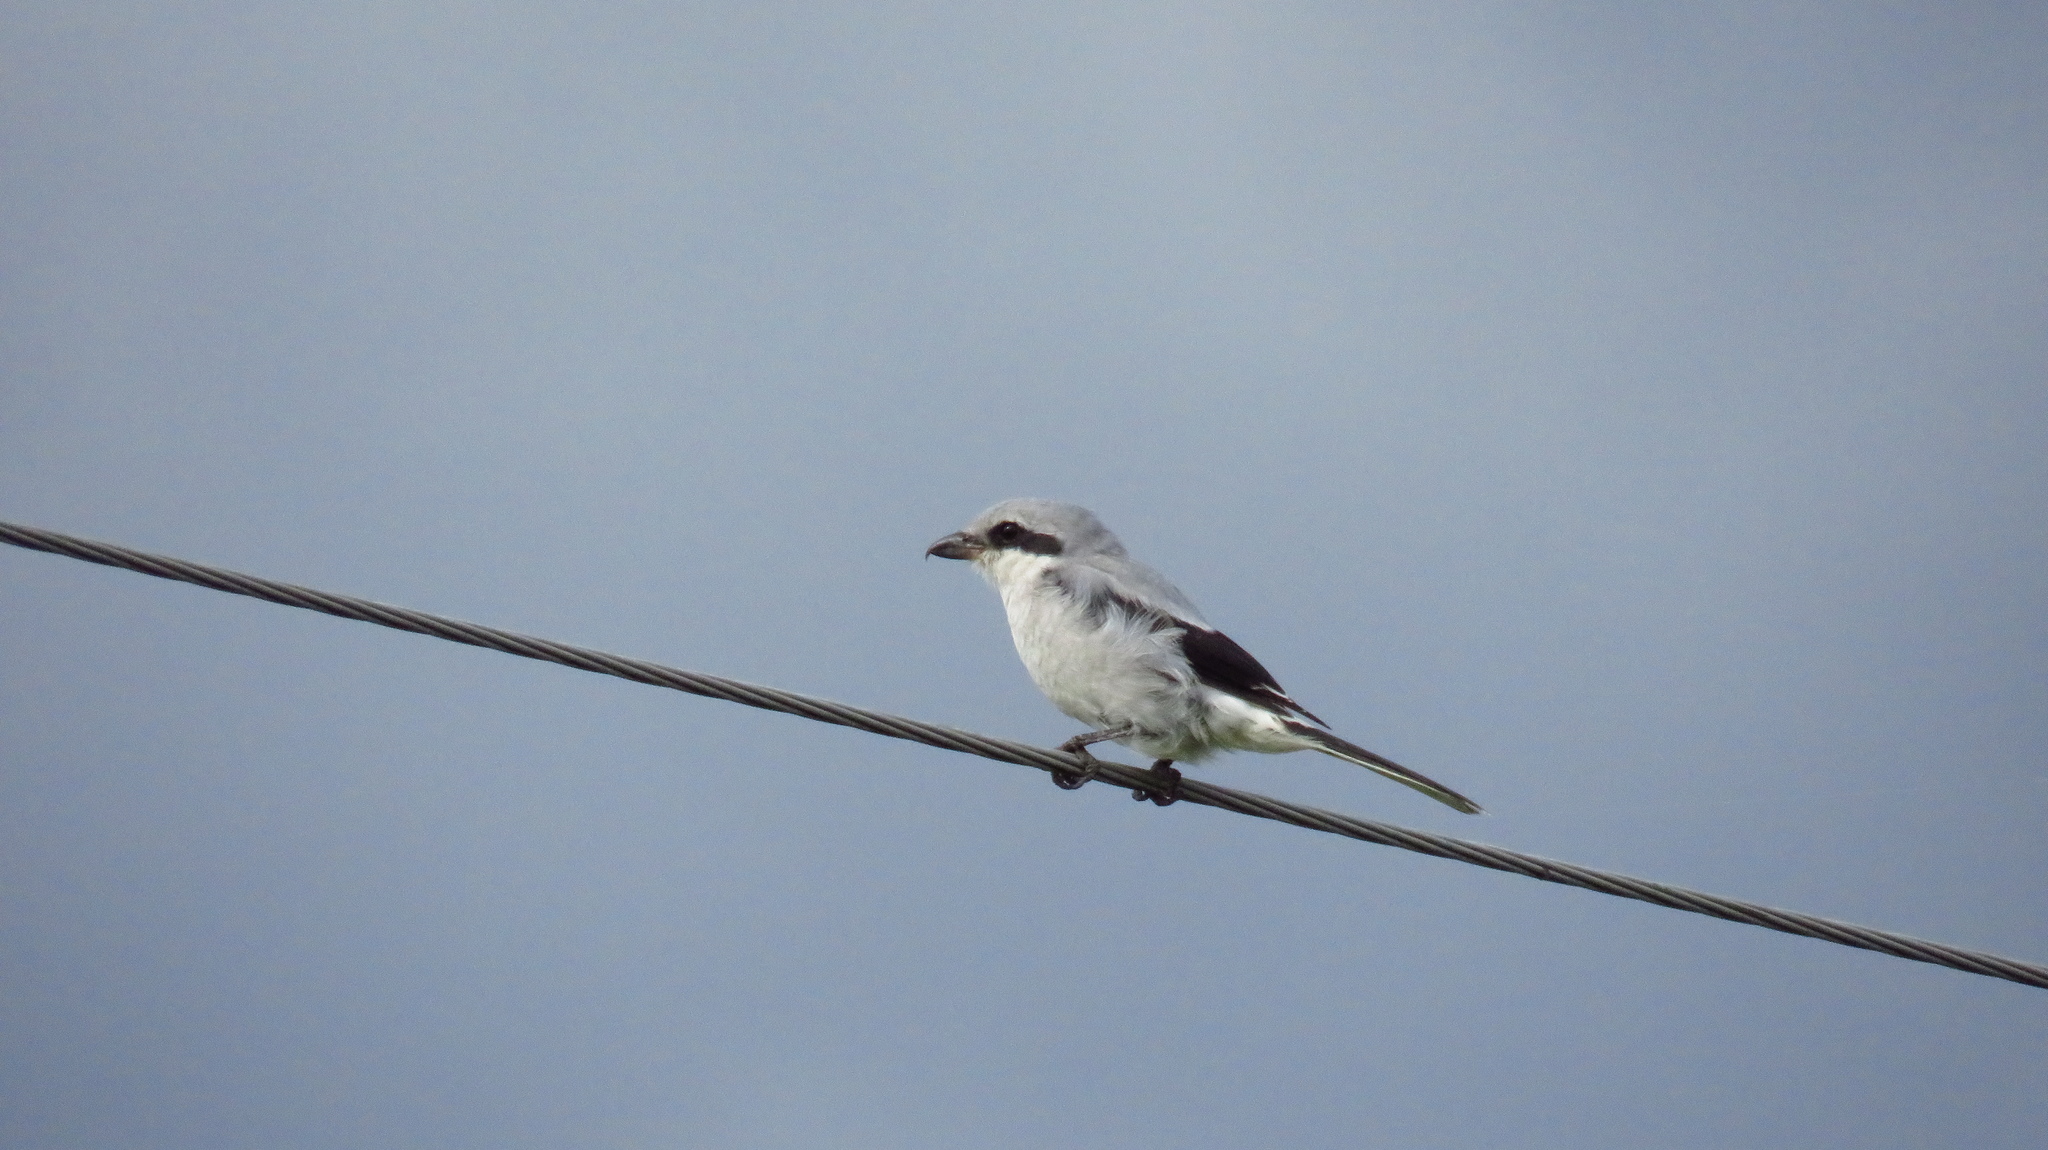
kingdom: Animalia
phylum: Chordata
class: Aves
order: Passeriformes
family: Laniidae
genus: Lanius
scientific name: Lanius excubitor
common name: Great grey shrike
